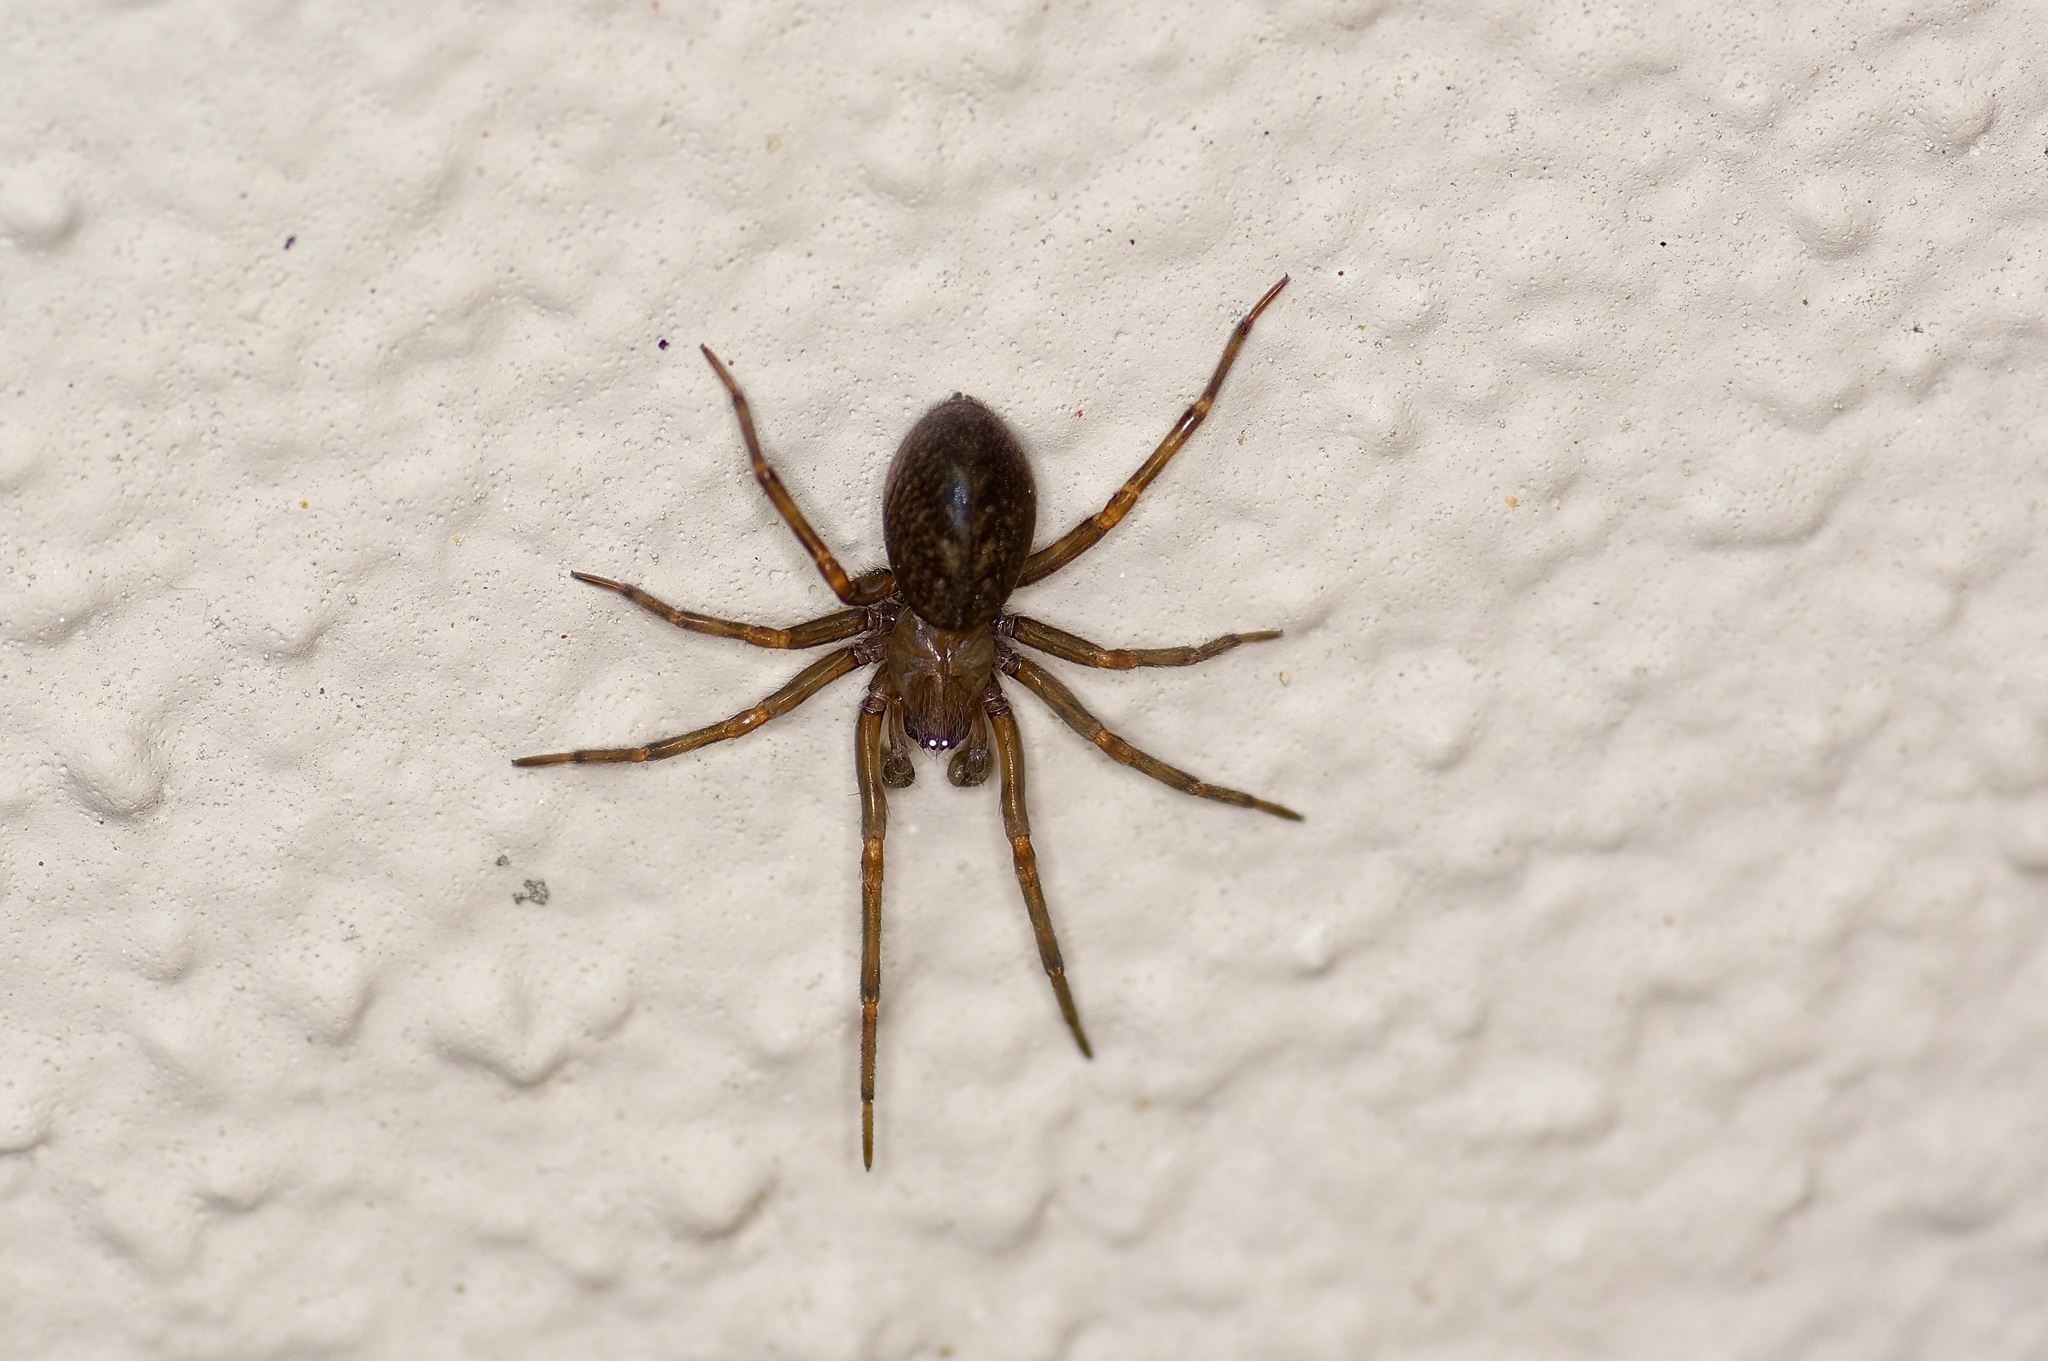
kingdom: Animalia
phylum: Arthropoda
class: Arachnida
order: Araneae
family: Desidae
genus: Metaltella
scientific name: Metaltella simoni
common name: Cribellate spider
